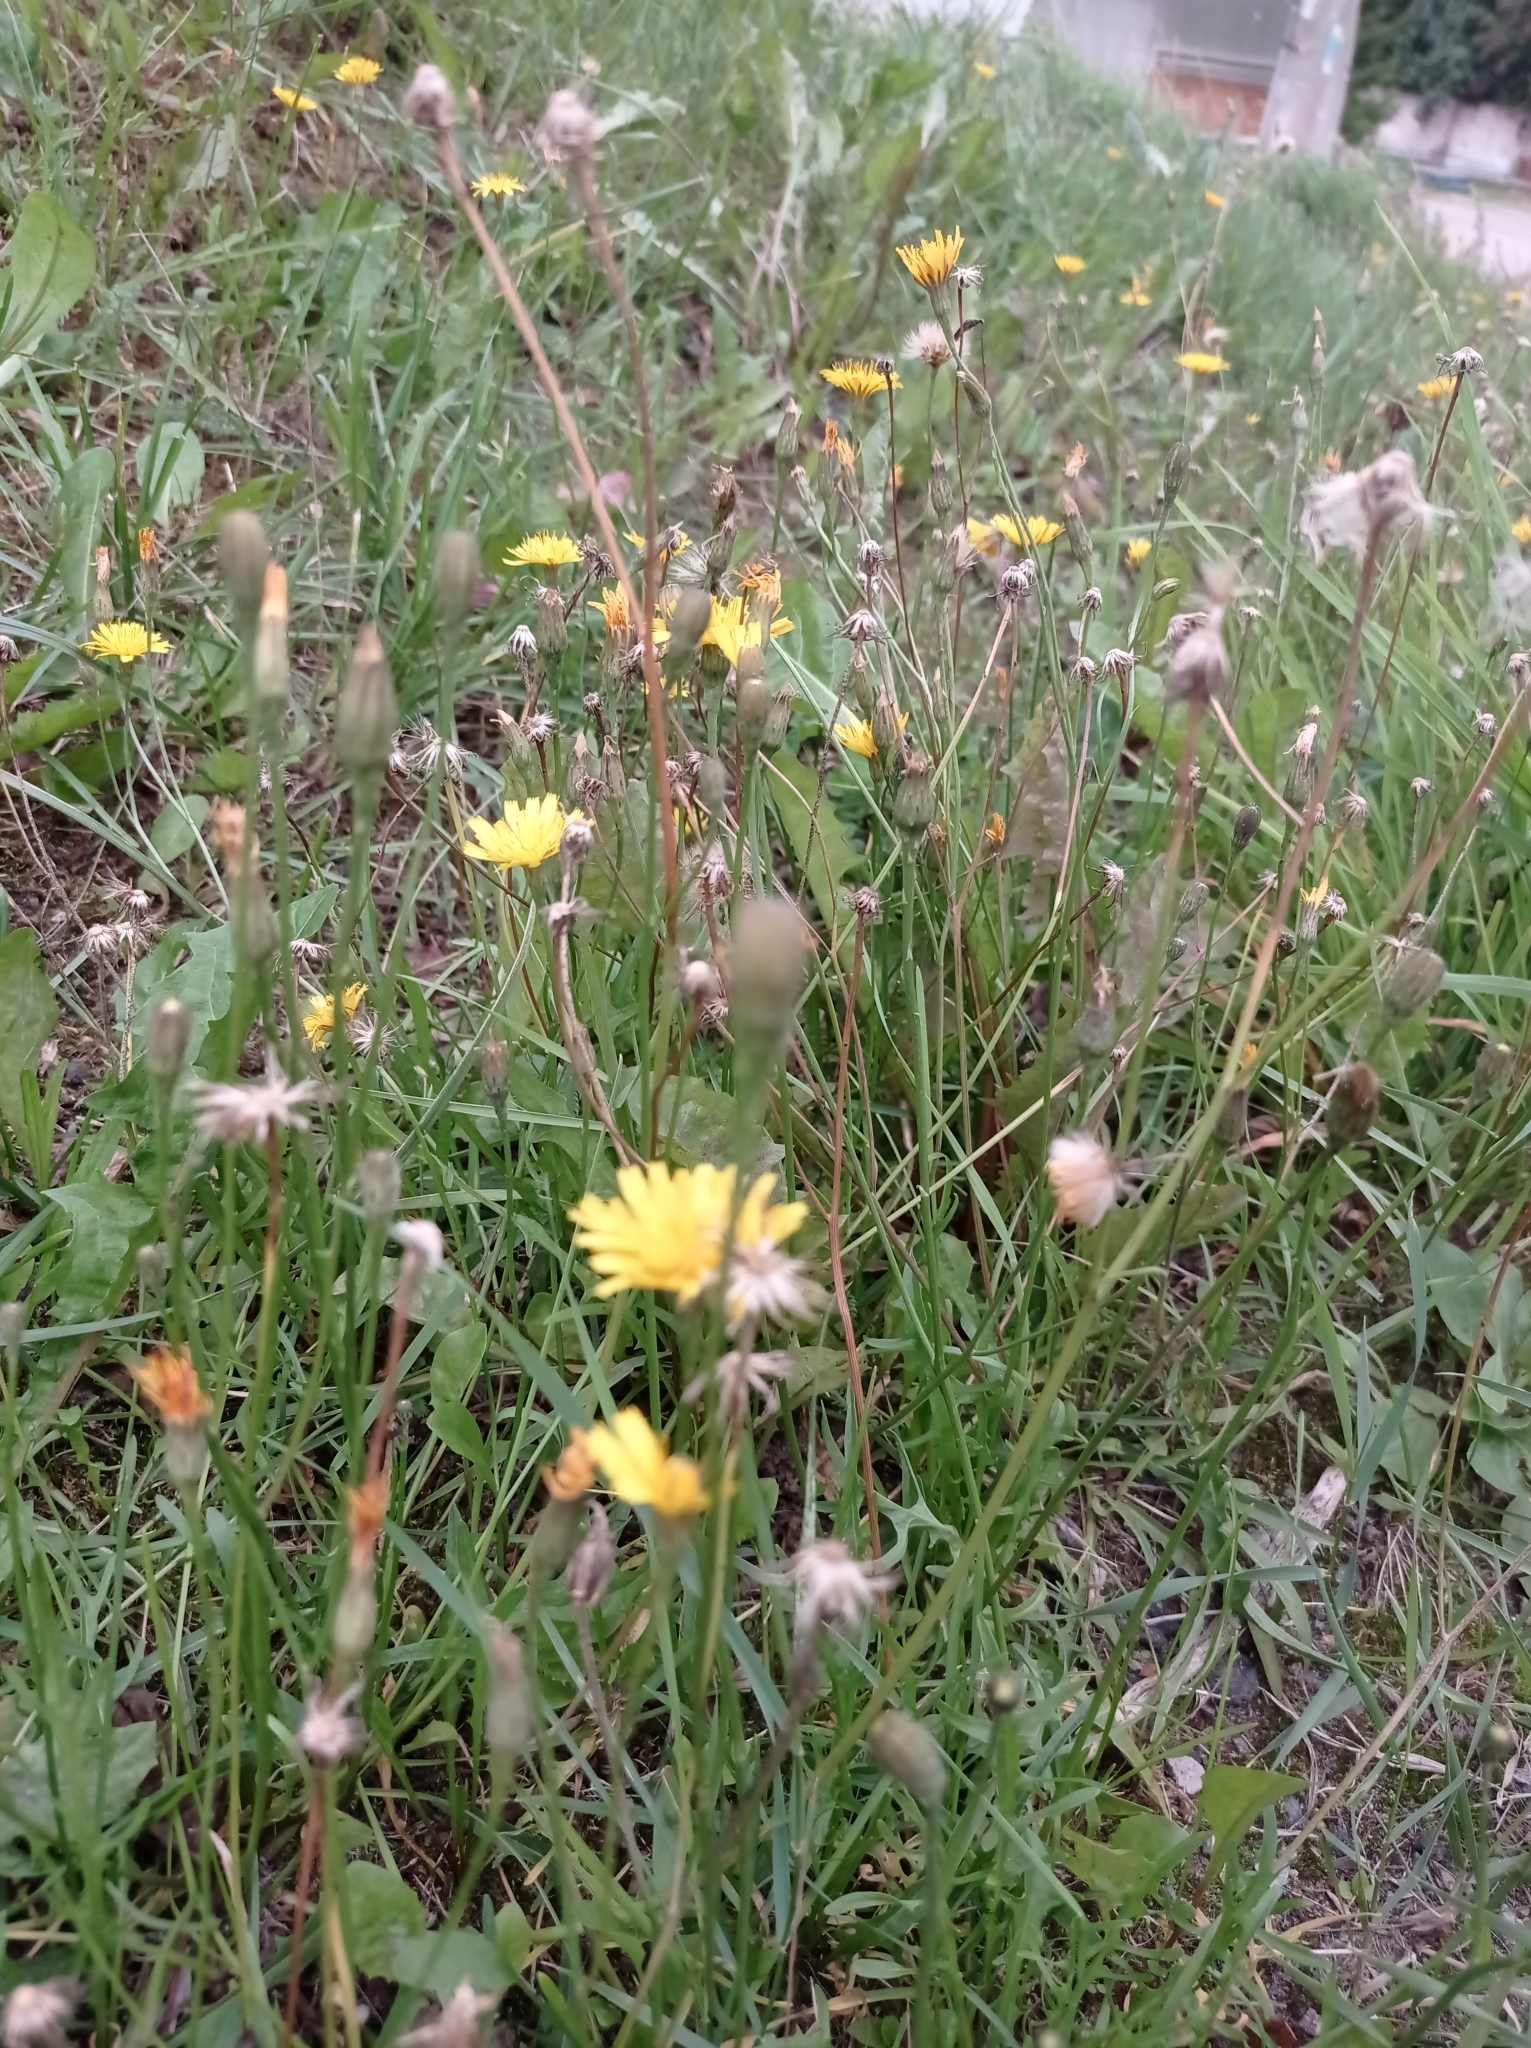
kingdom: Plantae
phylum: Tracheophyta
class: Magnoliopsida
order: Asterales
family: Asteraceae
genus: Scorzoneroides
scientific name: Scorzoneroides autumnalis
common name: Autumn hawkbit
